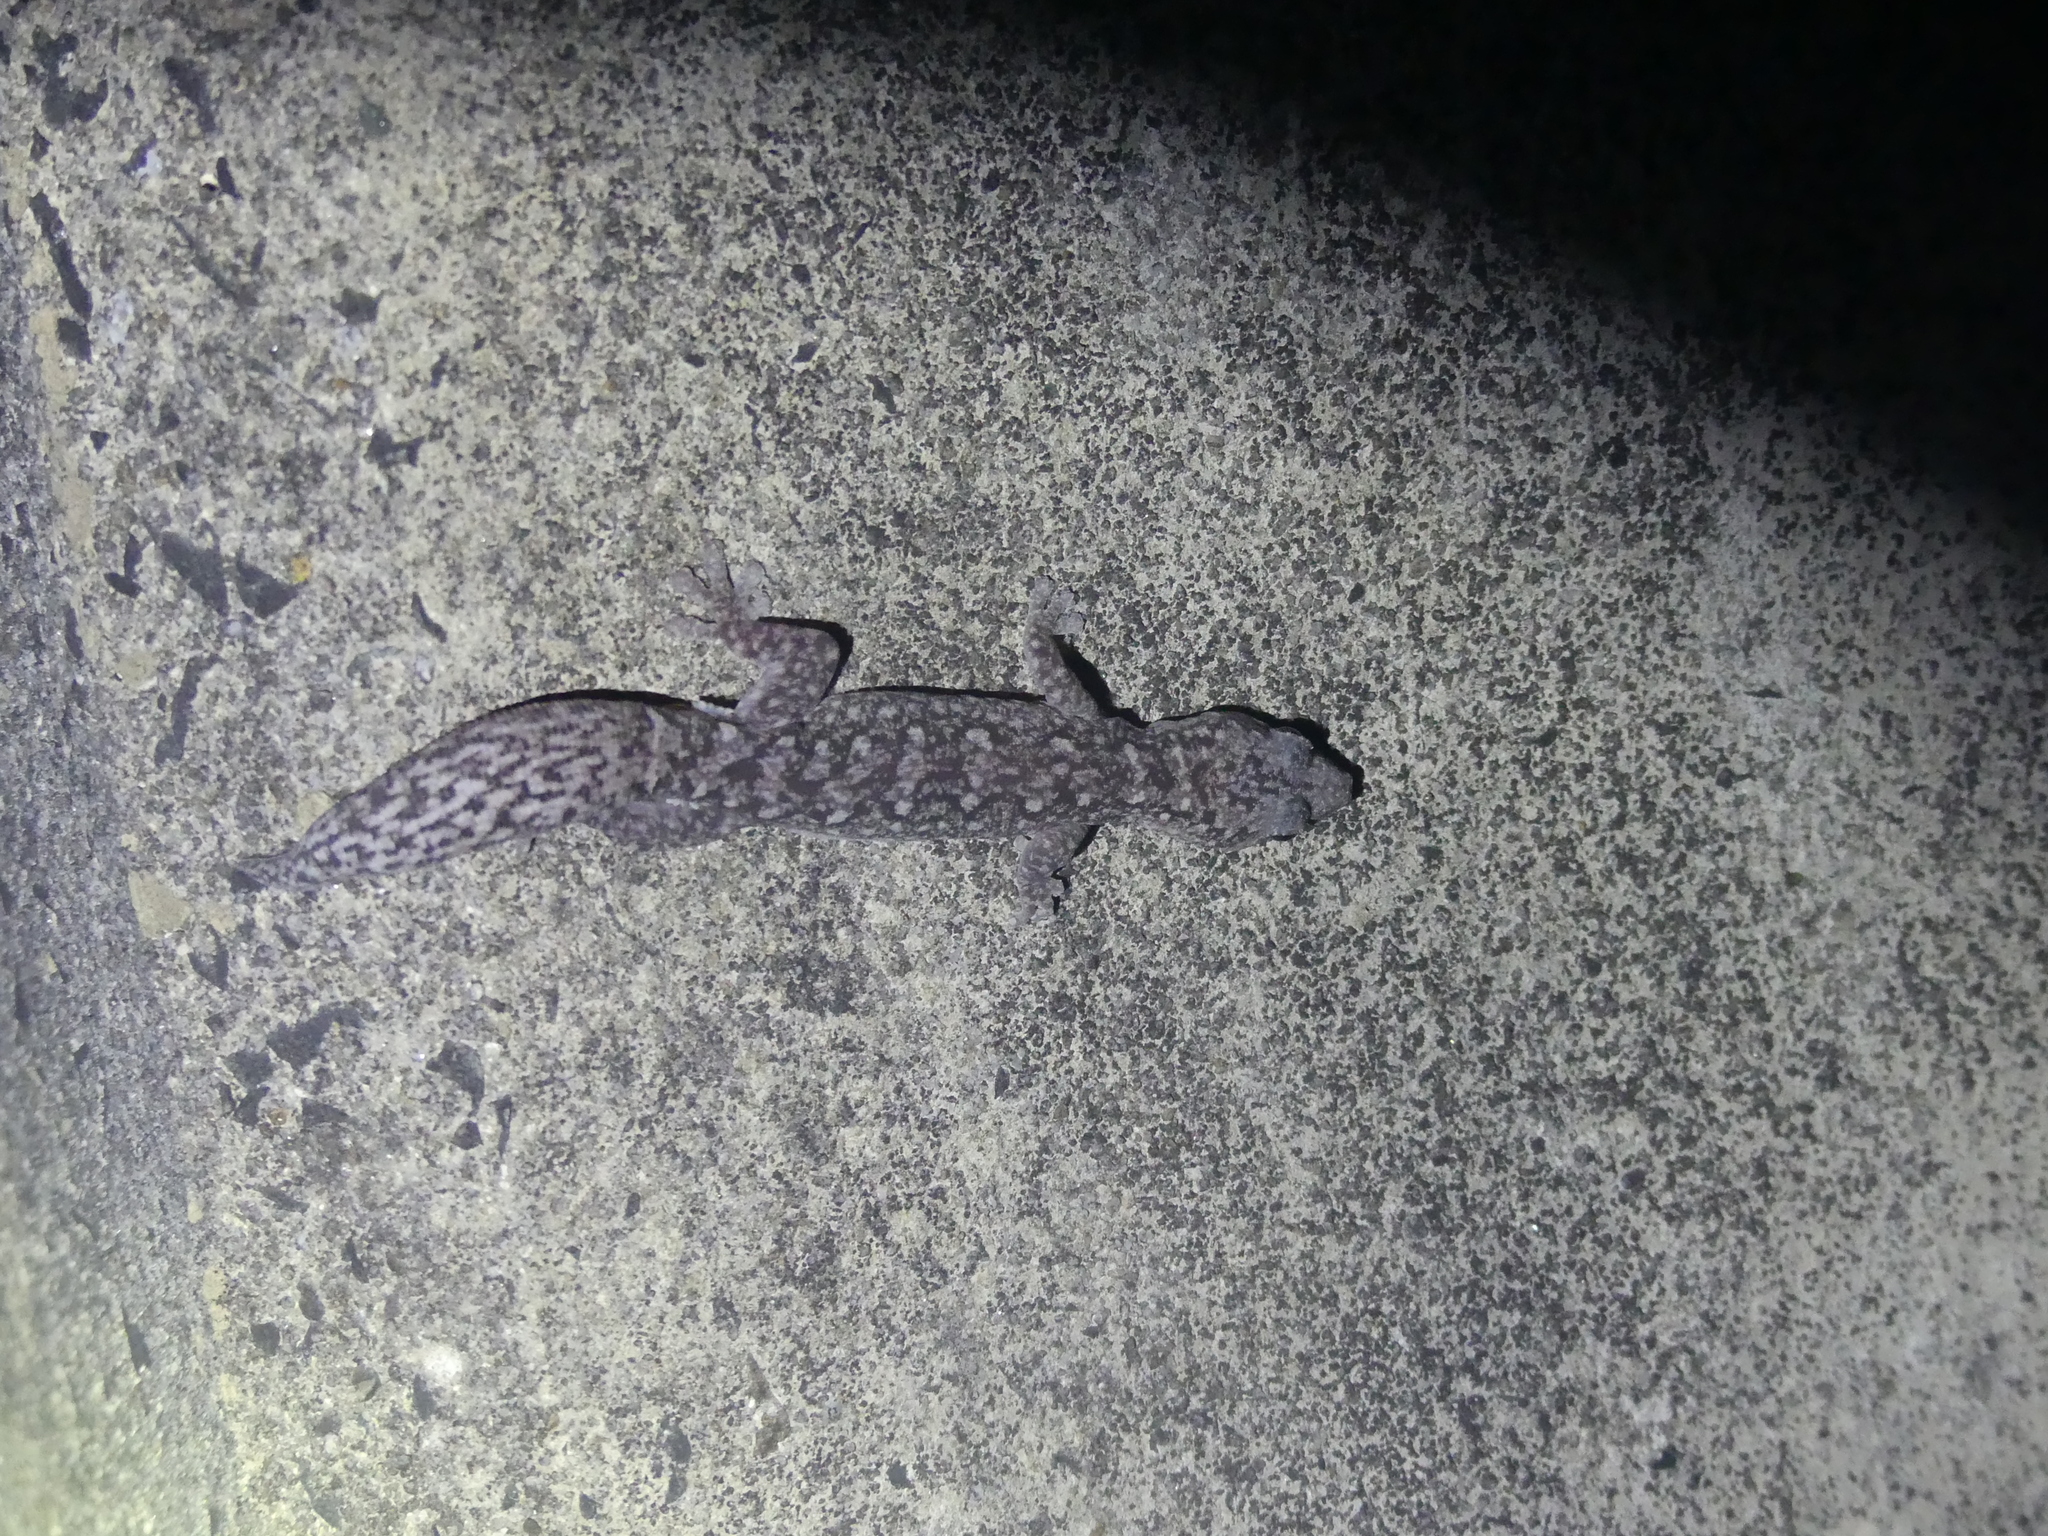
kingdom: Animalia
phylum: Chordata
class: Squamata
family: Diplodactylidae
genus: Amalosia
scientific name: Amalosia lesueurii
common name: Lesueur's gecko
